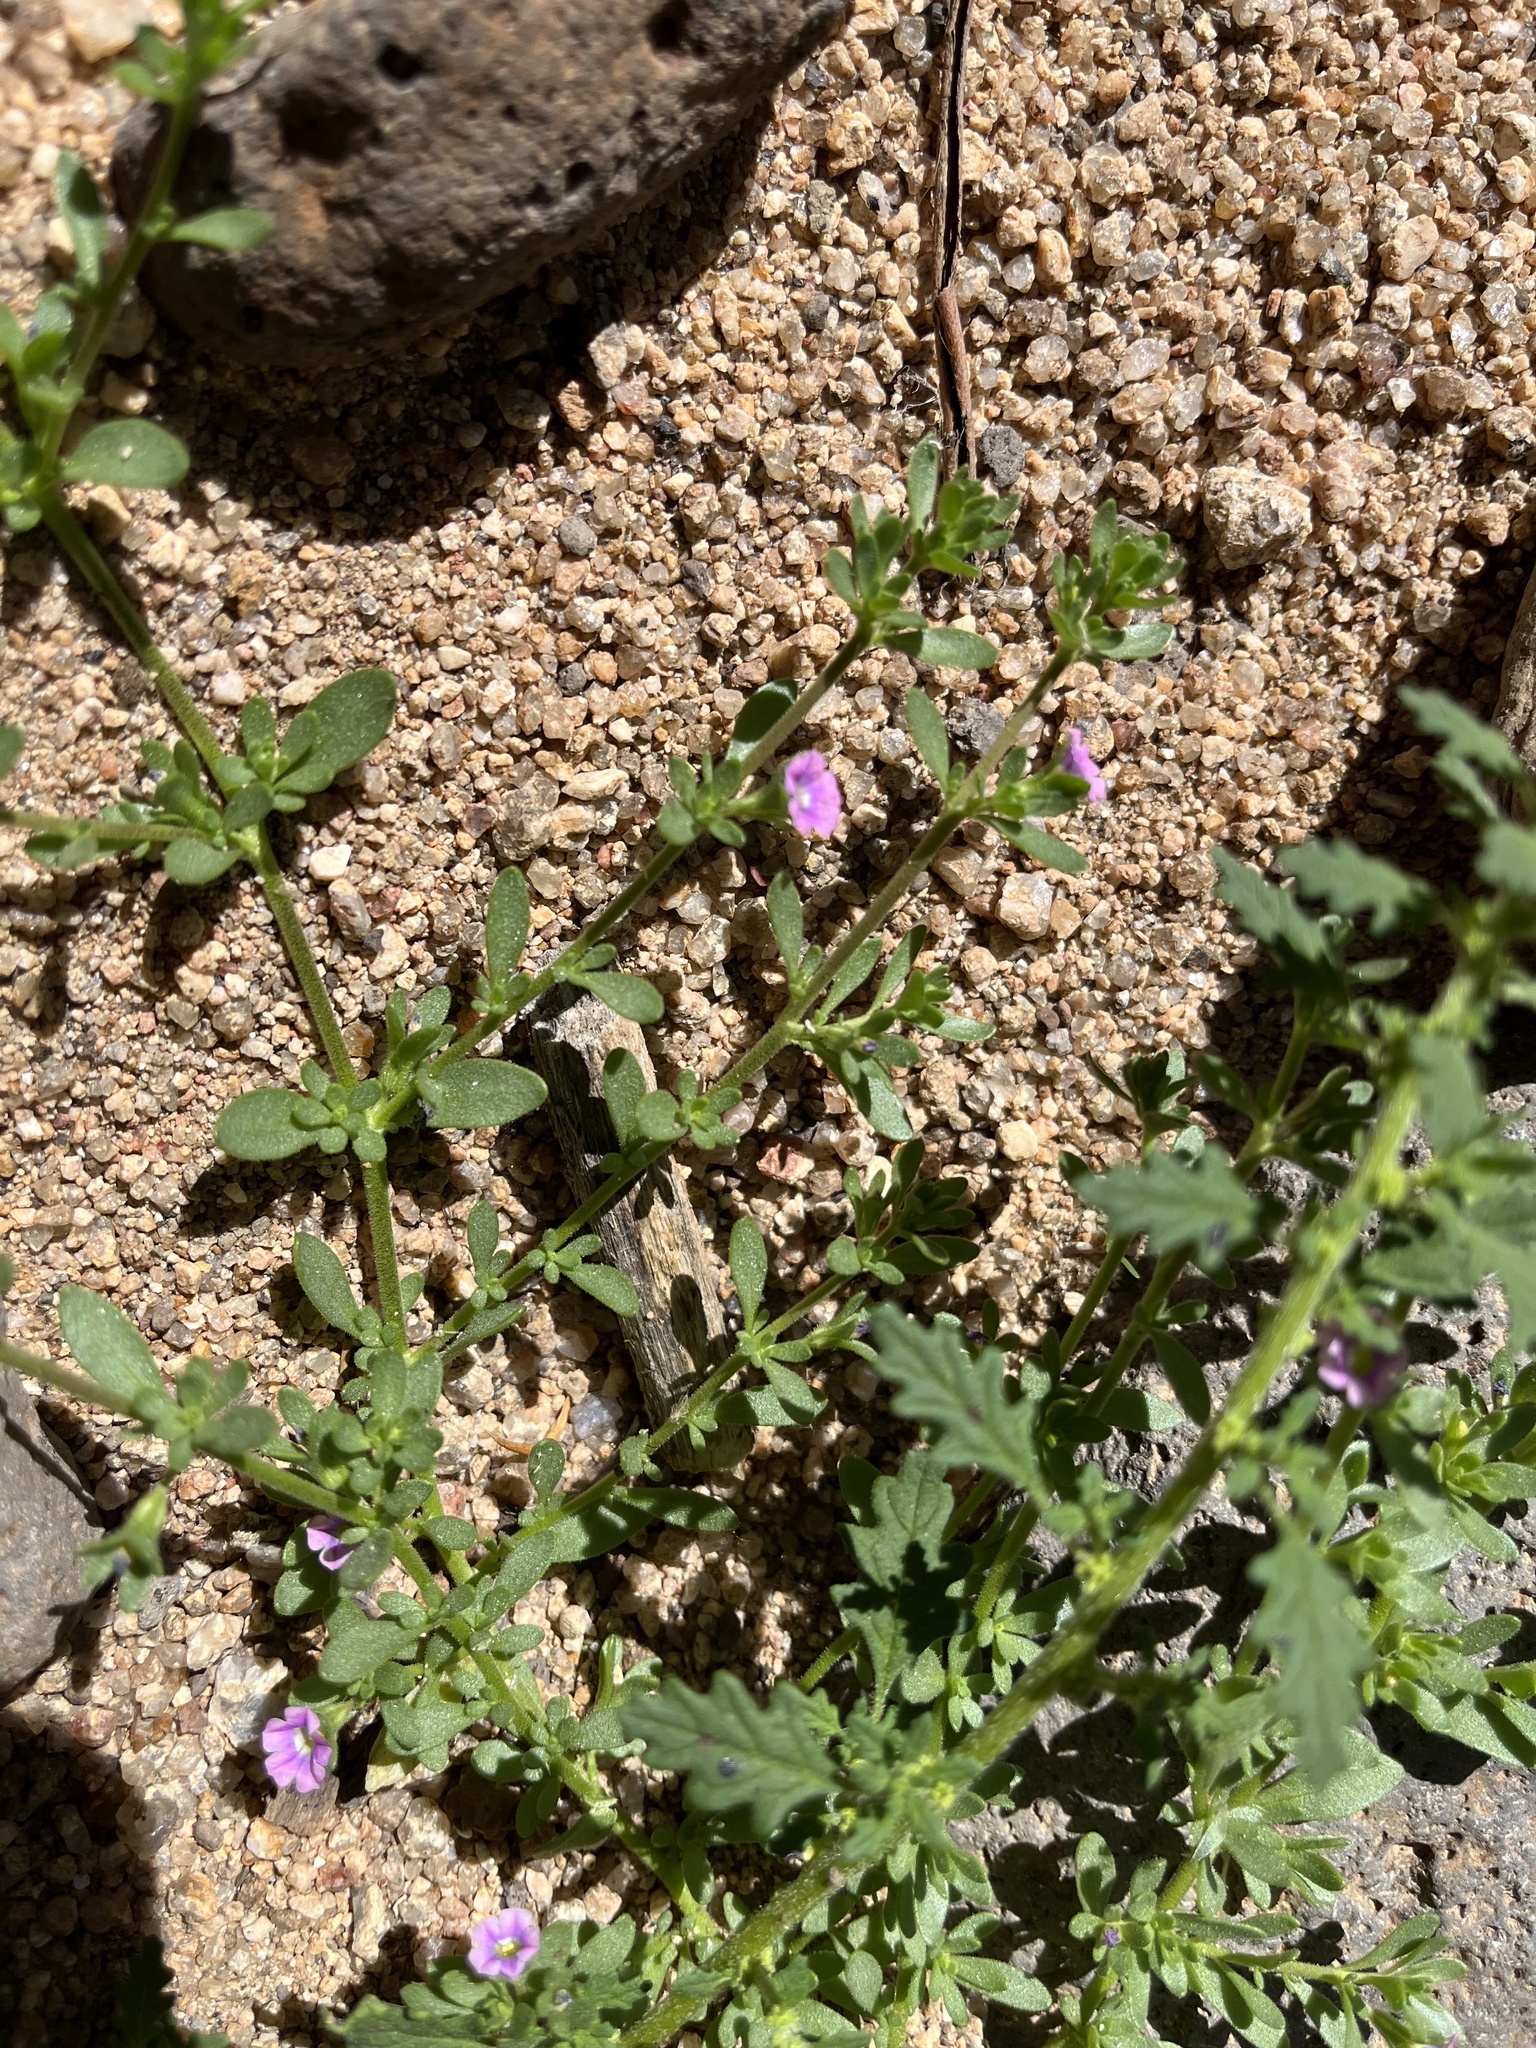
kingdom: Plantae
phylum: Tracheophyta
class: Magnoliopsida
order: Solanales
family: Solanaceae
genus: Calibrachoa
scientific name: Calibrachoa parviflora
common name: Seaside petunia
